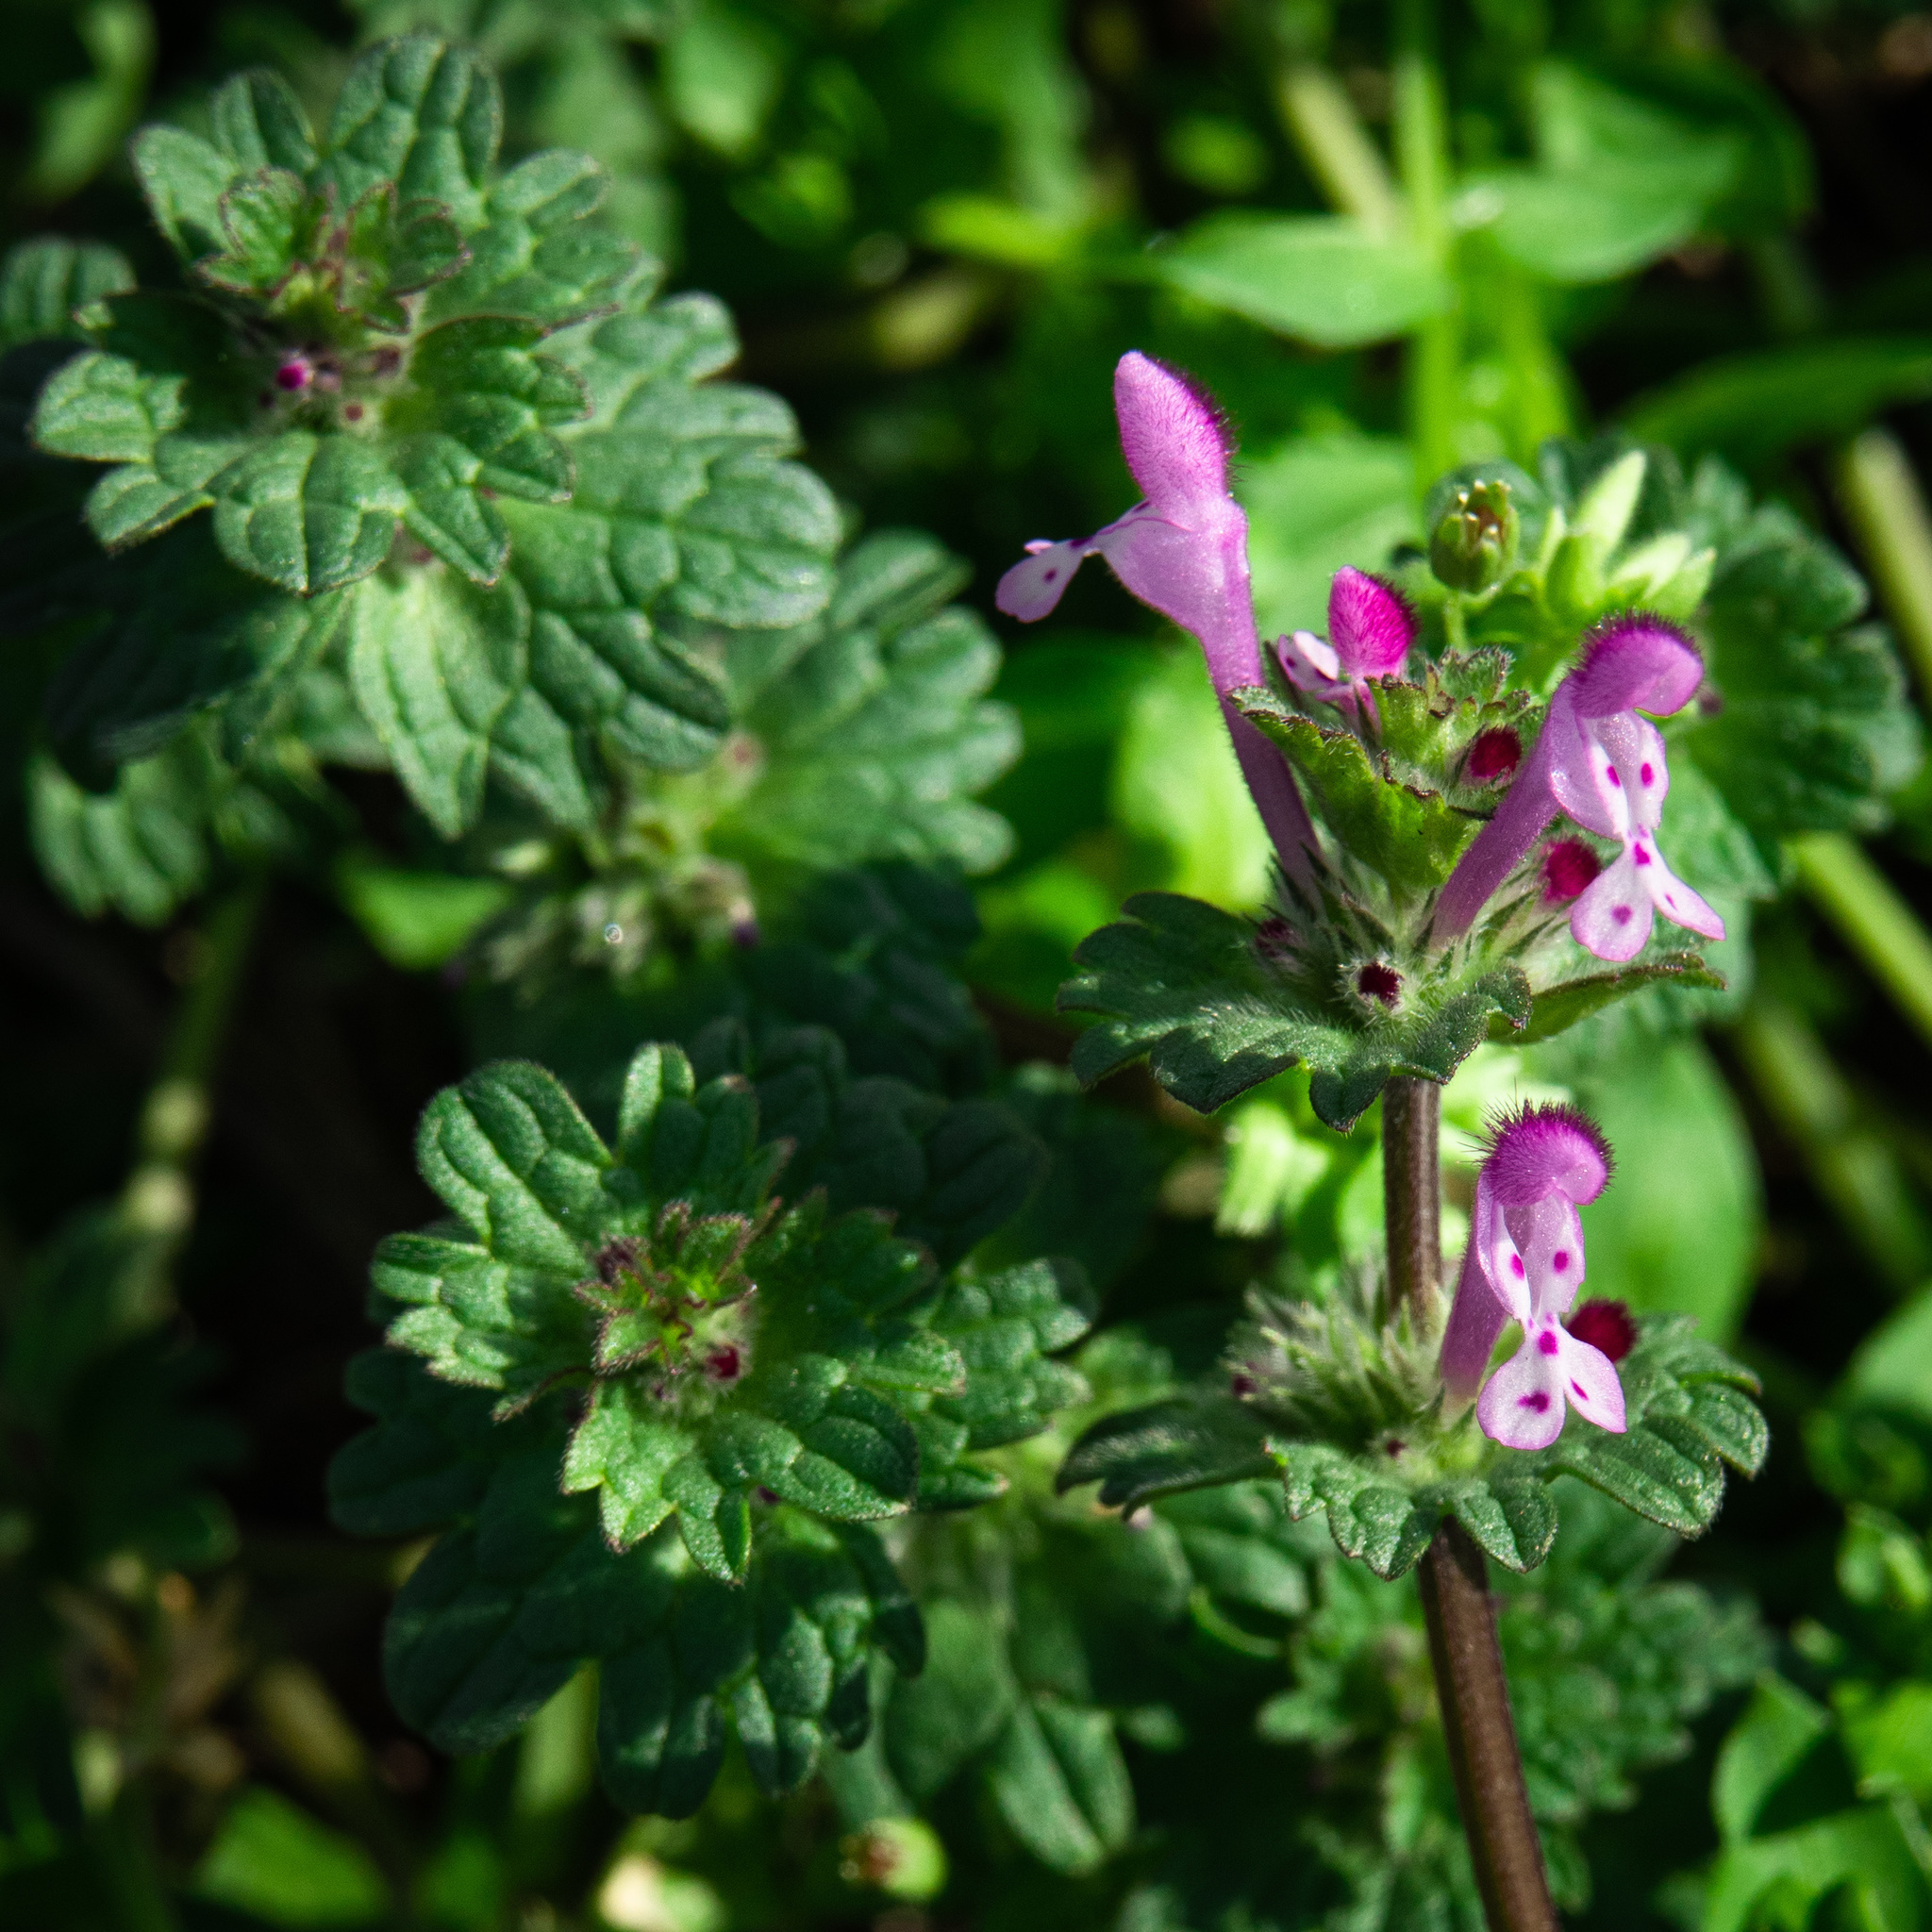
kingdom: Plantae
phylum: Tracheophyta
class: Magnoliopsida
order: Lamiales
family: Lamiaceae
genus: Lamium
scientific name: Lamium amplexicaule
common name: Henbit dead-nettle
